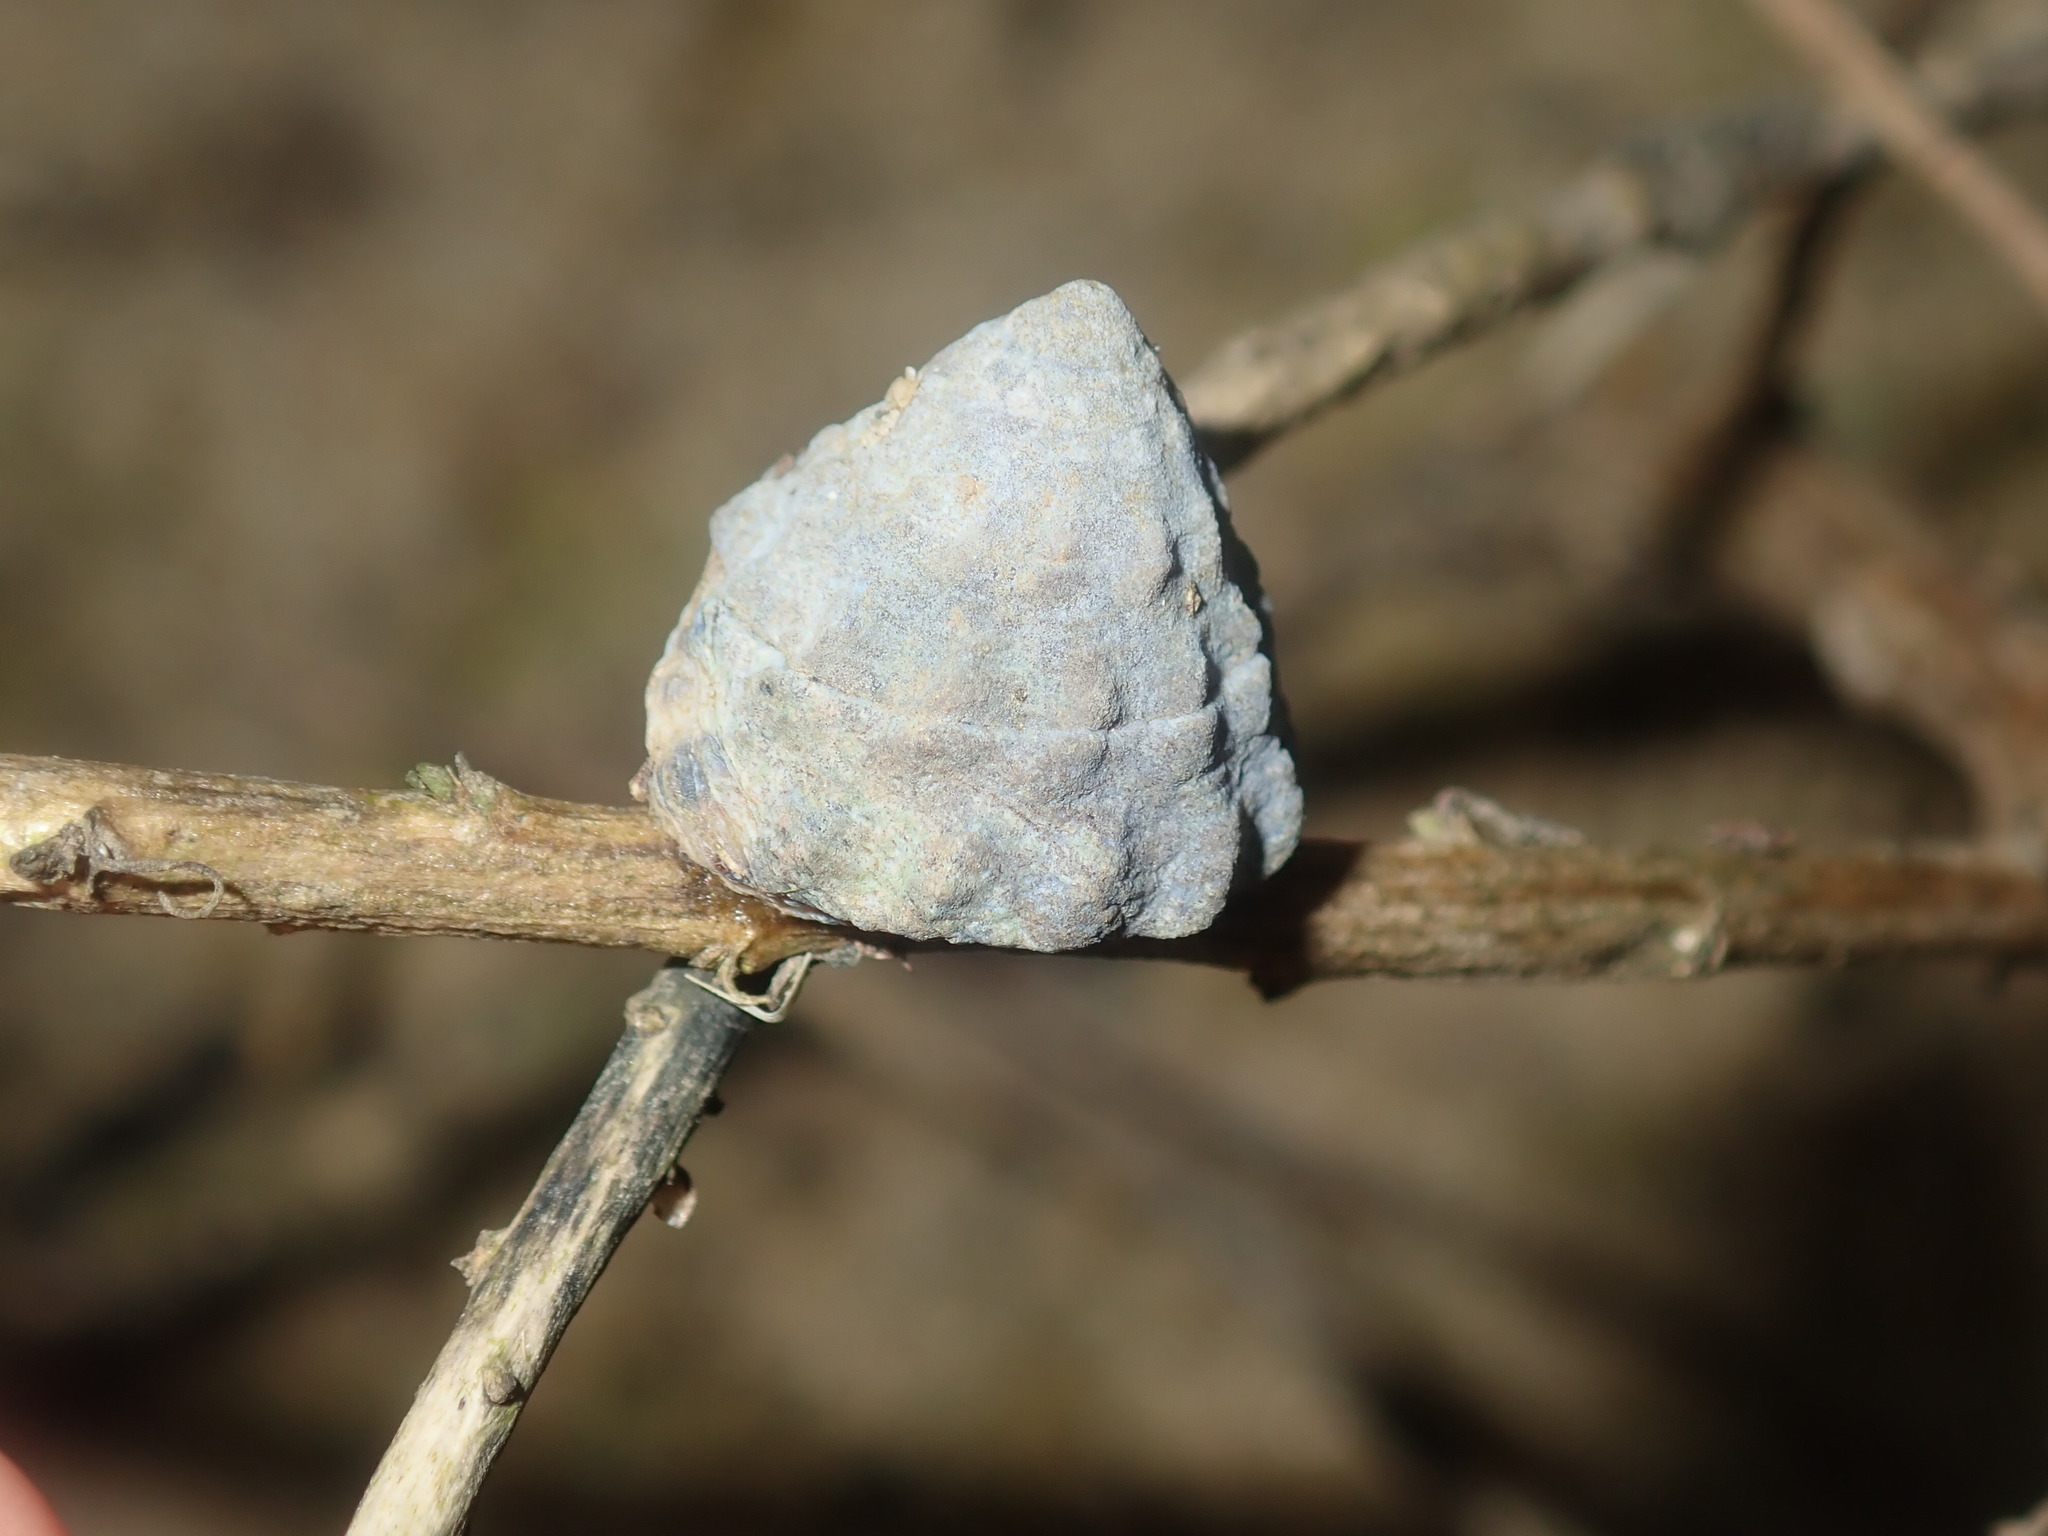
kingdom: Animalia
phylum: Mollusca
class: Gastropoda
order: Littorinimorpha
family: Littorinidae
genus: Bembicium
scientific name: Bembicium auratum
